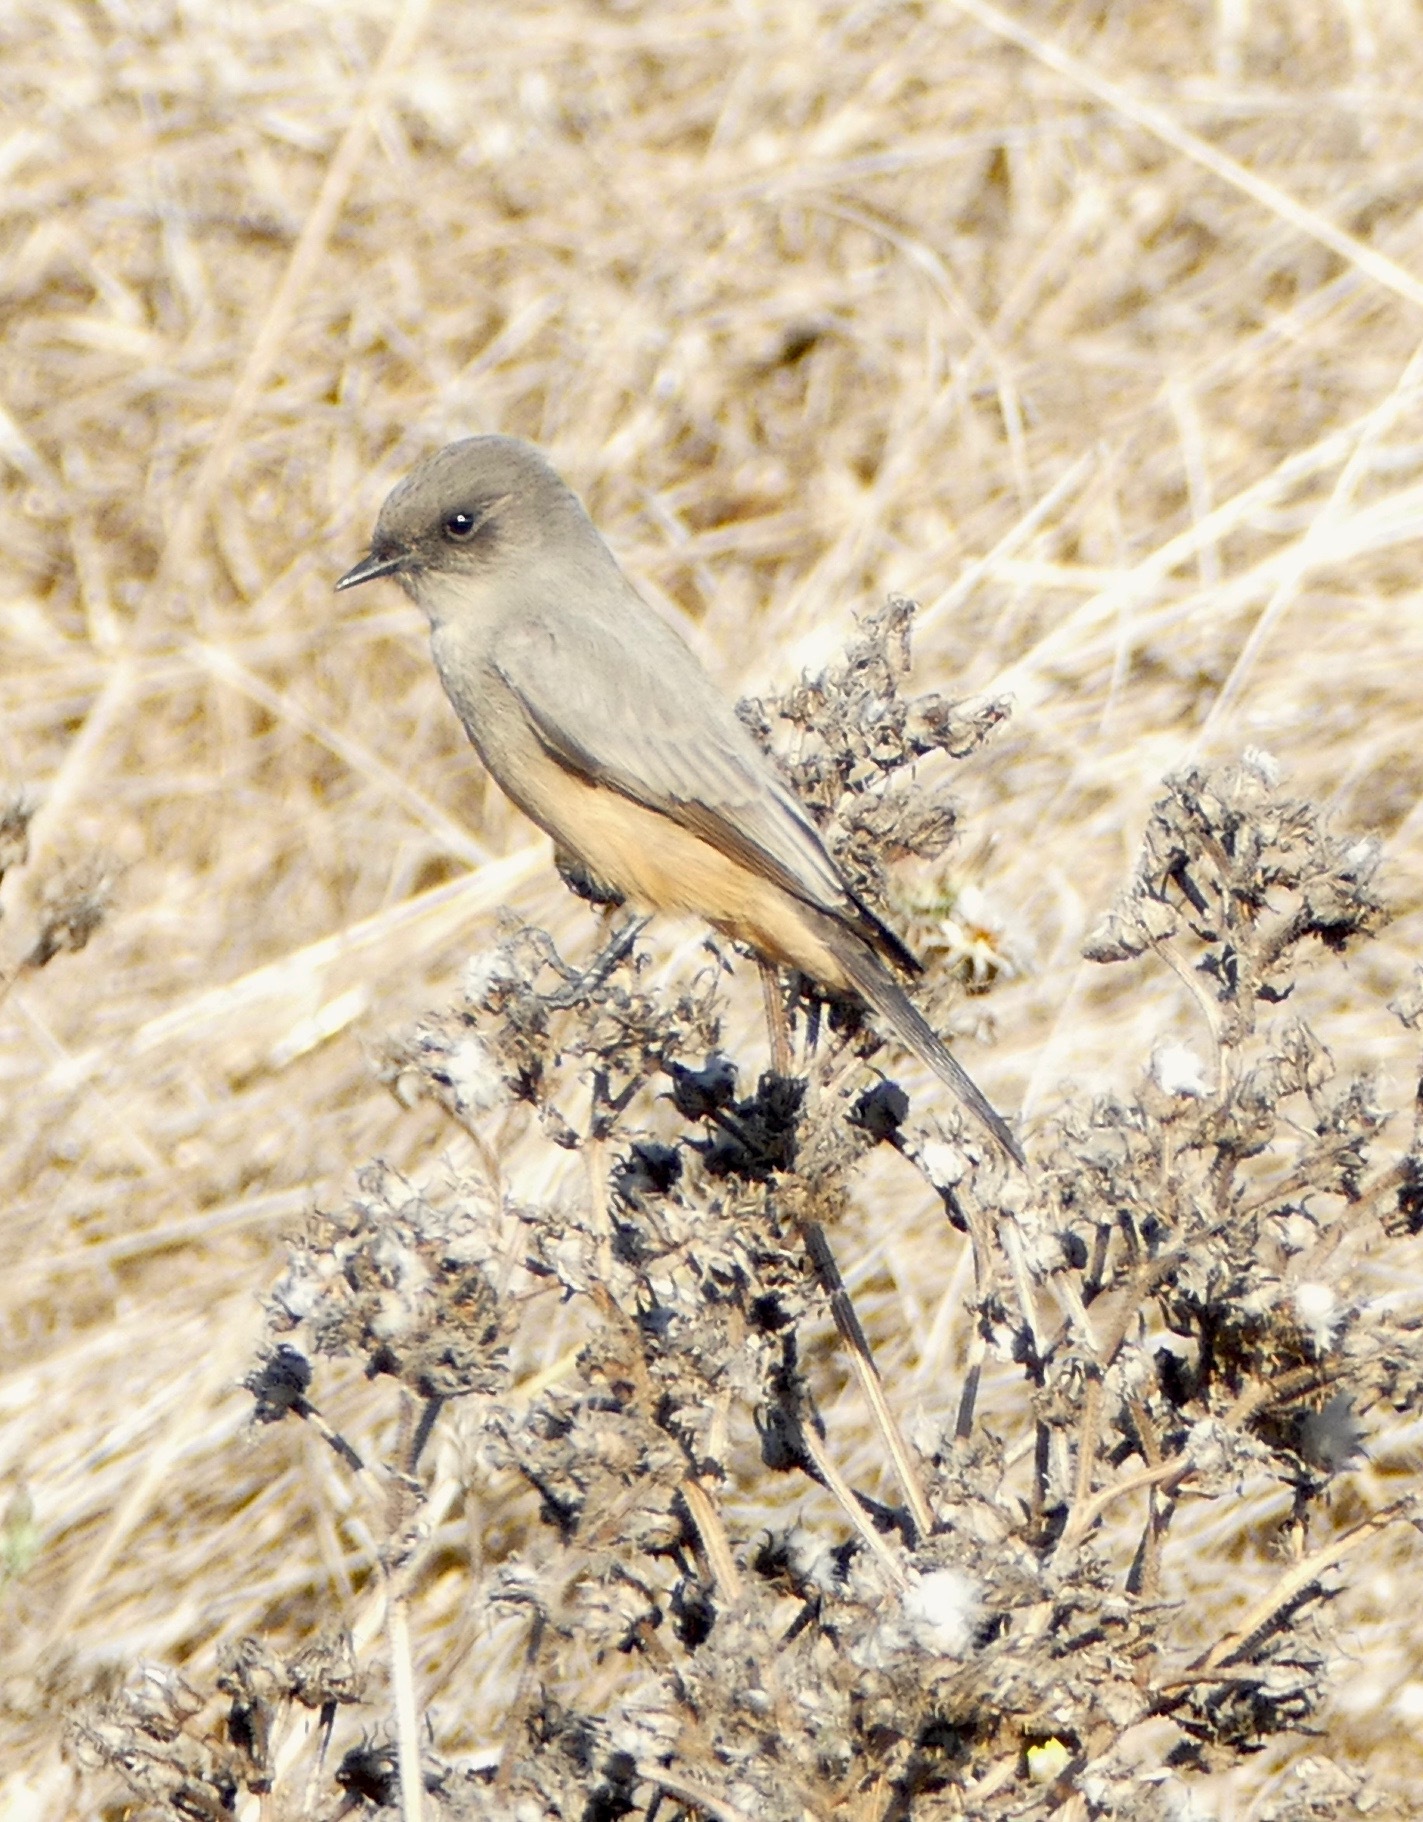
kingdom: Animalia
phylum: Chordata
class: Aves
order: Passeriformes
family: Tyrannidae
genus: Sayornis
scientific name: Sayornis saya
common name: Say's phoebe
